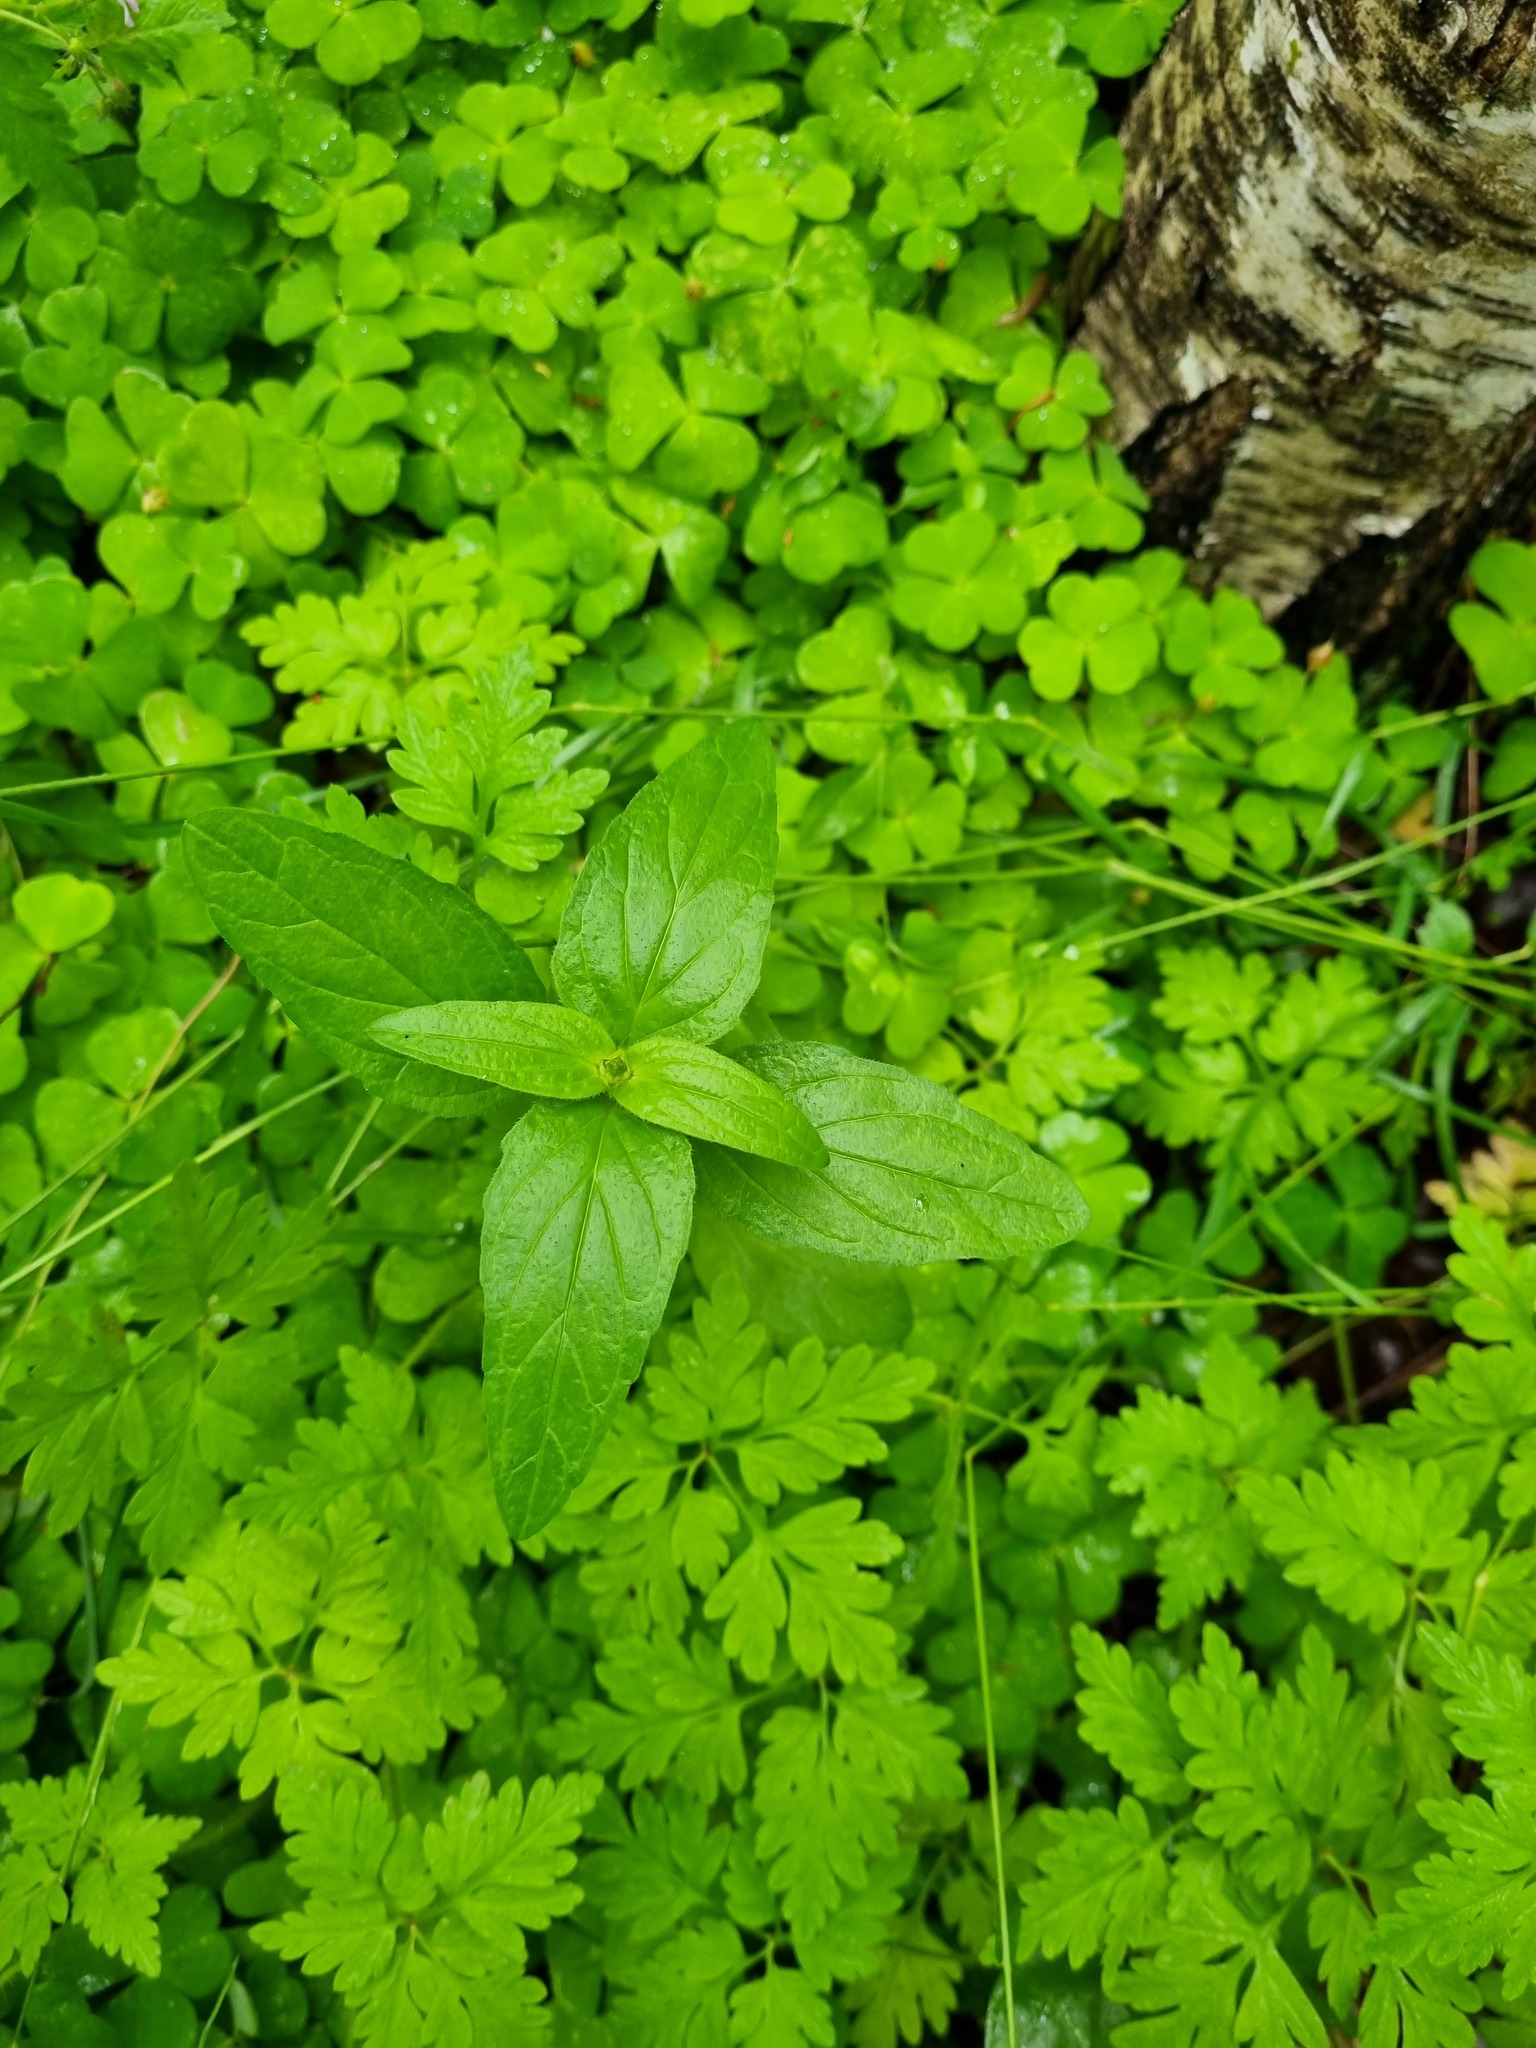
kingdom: Plantae
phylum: Tracheophyta
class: Magnoliopsida
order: Lamiales
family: Lamiaceae
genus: Prunella
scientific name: Prunella vulgaris
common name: Heal-all
